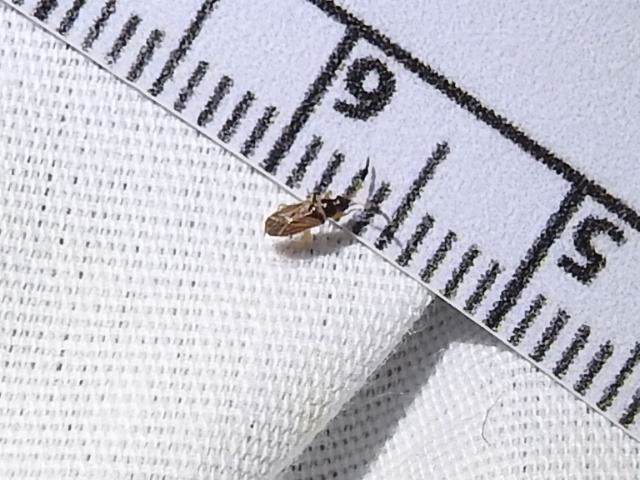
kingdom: Animalia
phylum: Arthropoda
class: Insecta
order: Hemiptera
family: Rhyparochromidae
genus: Ptochiomera
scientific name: Ptochiomera nodosa
